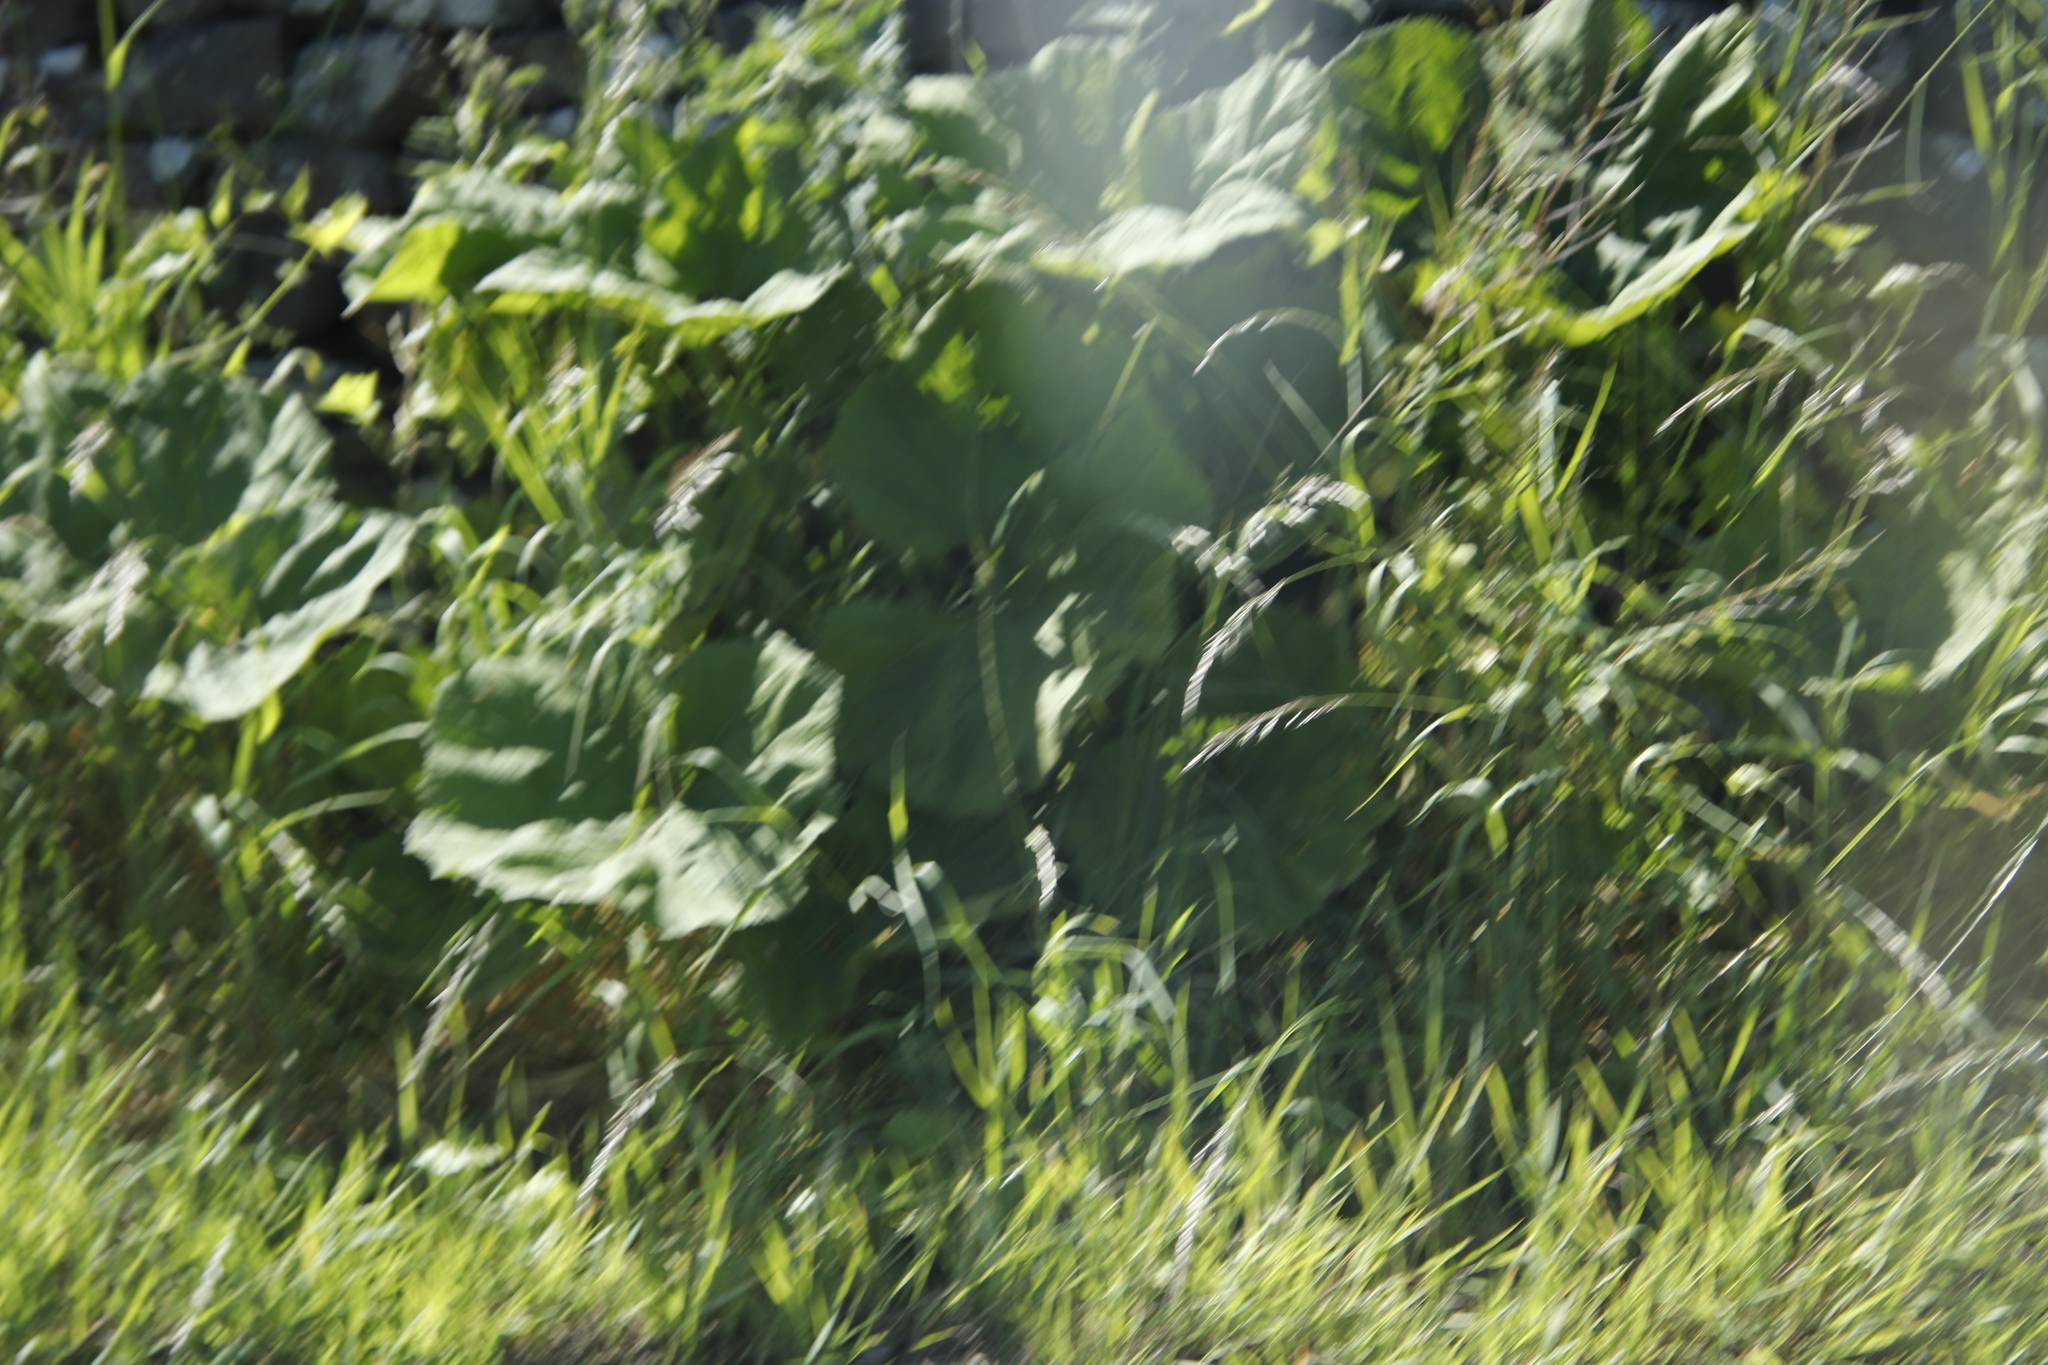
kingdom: Plantae
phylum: Tracheophyta
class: Magnoliopsida
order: Asterales
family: Asteraceae
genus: Petasites
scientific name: Petasites hybridus
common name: Butterbur
